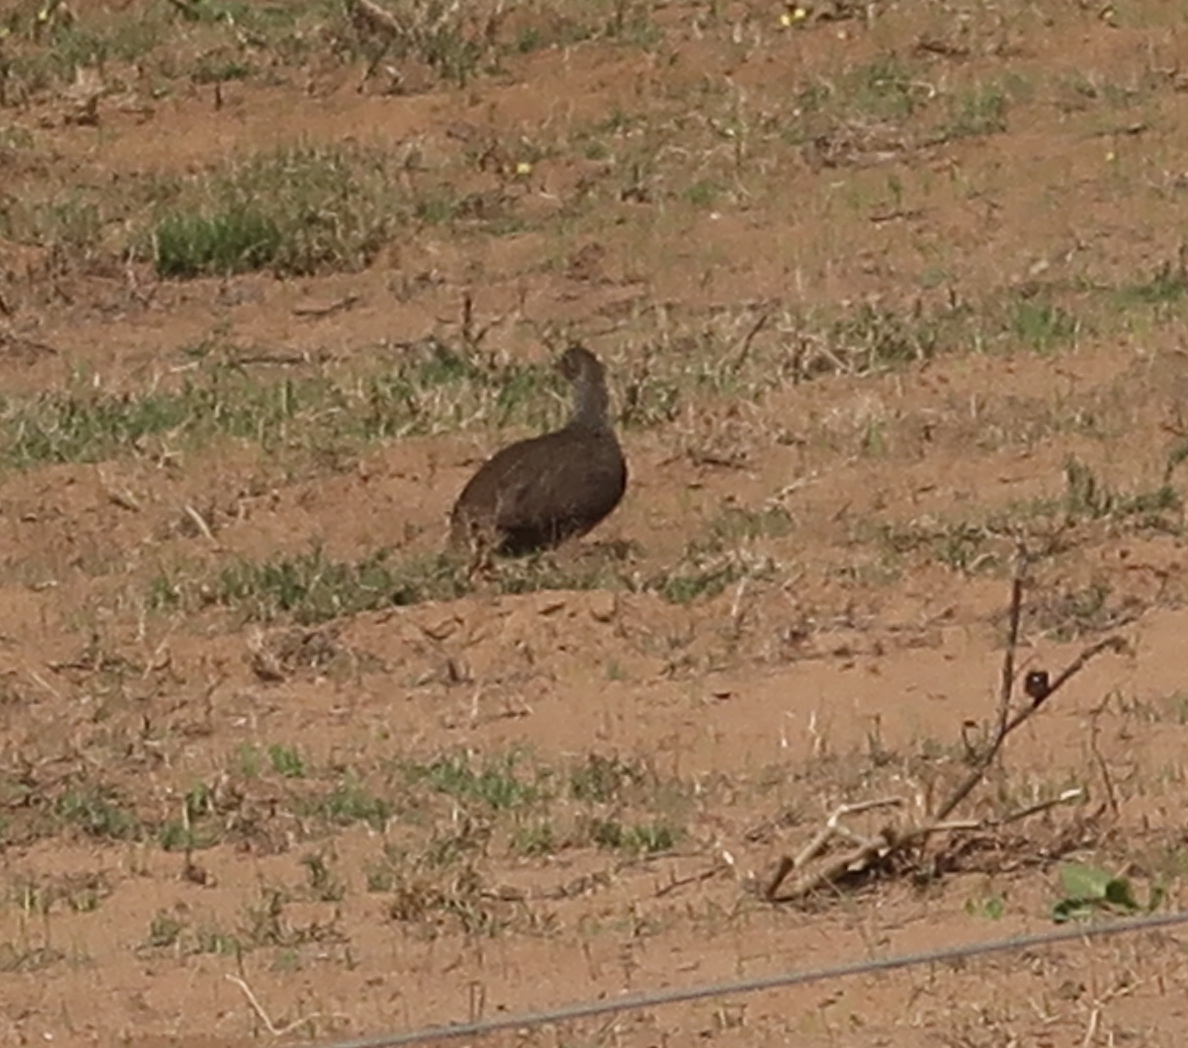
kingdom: Animalia
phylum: Chordata
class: Aves
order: Galliformes
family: Phasianidae
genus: Pternistis
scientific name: Pternistis capensis
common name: Cape spurfowl
